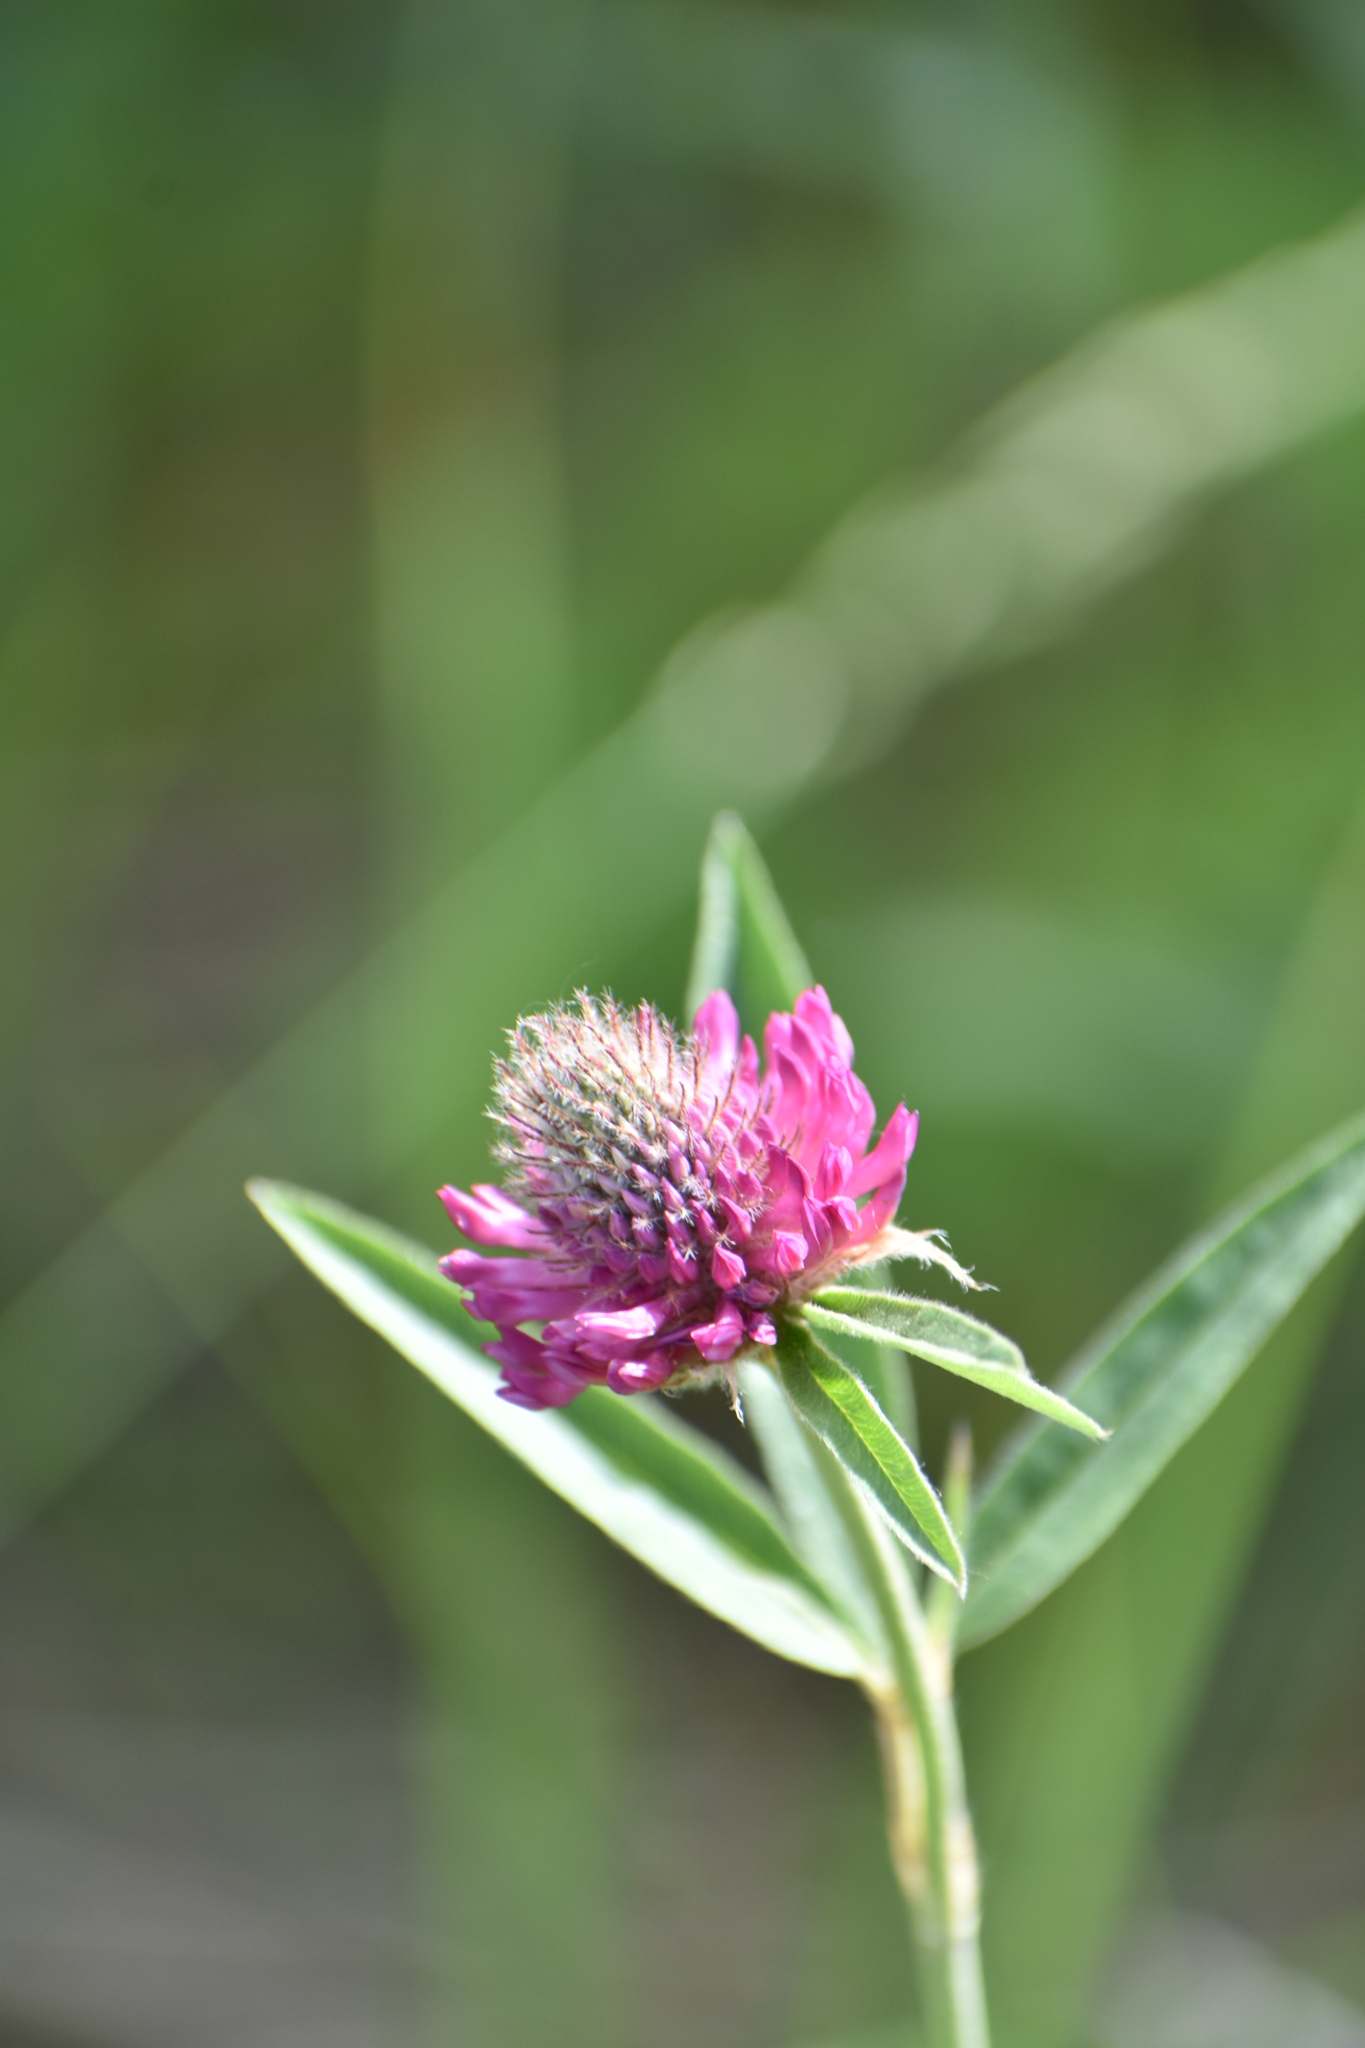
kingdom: Plantae
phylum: Tracheophyta
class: Magnoliopsida
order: Fabales
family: Fabaceae
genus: Trifolium
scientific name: Trifolium alpestre
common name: Owl-head clover
